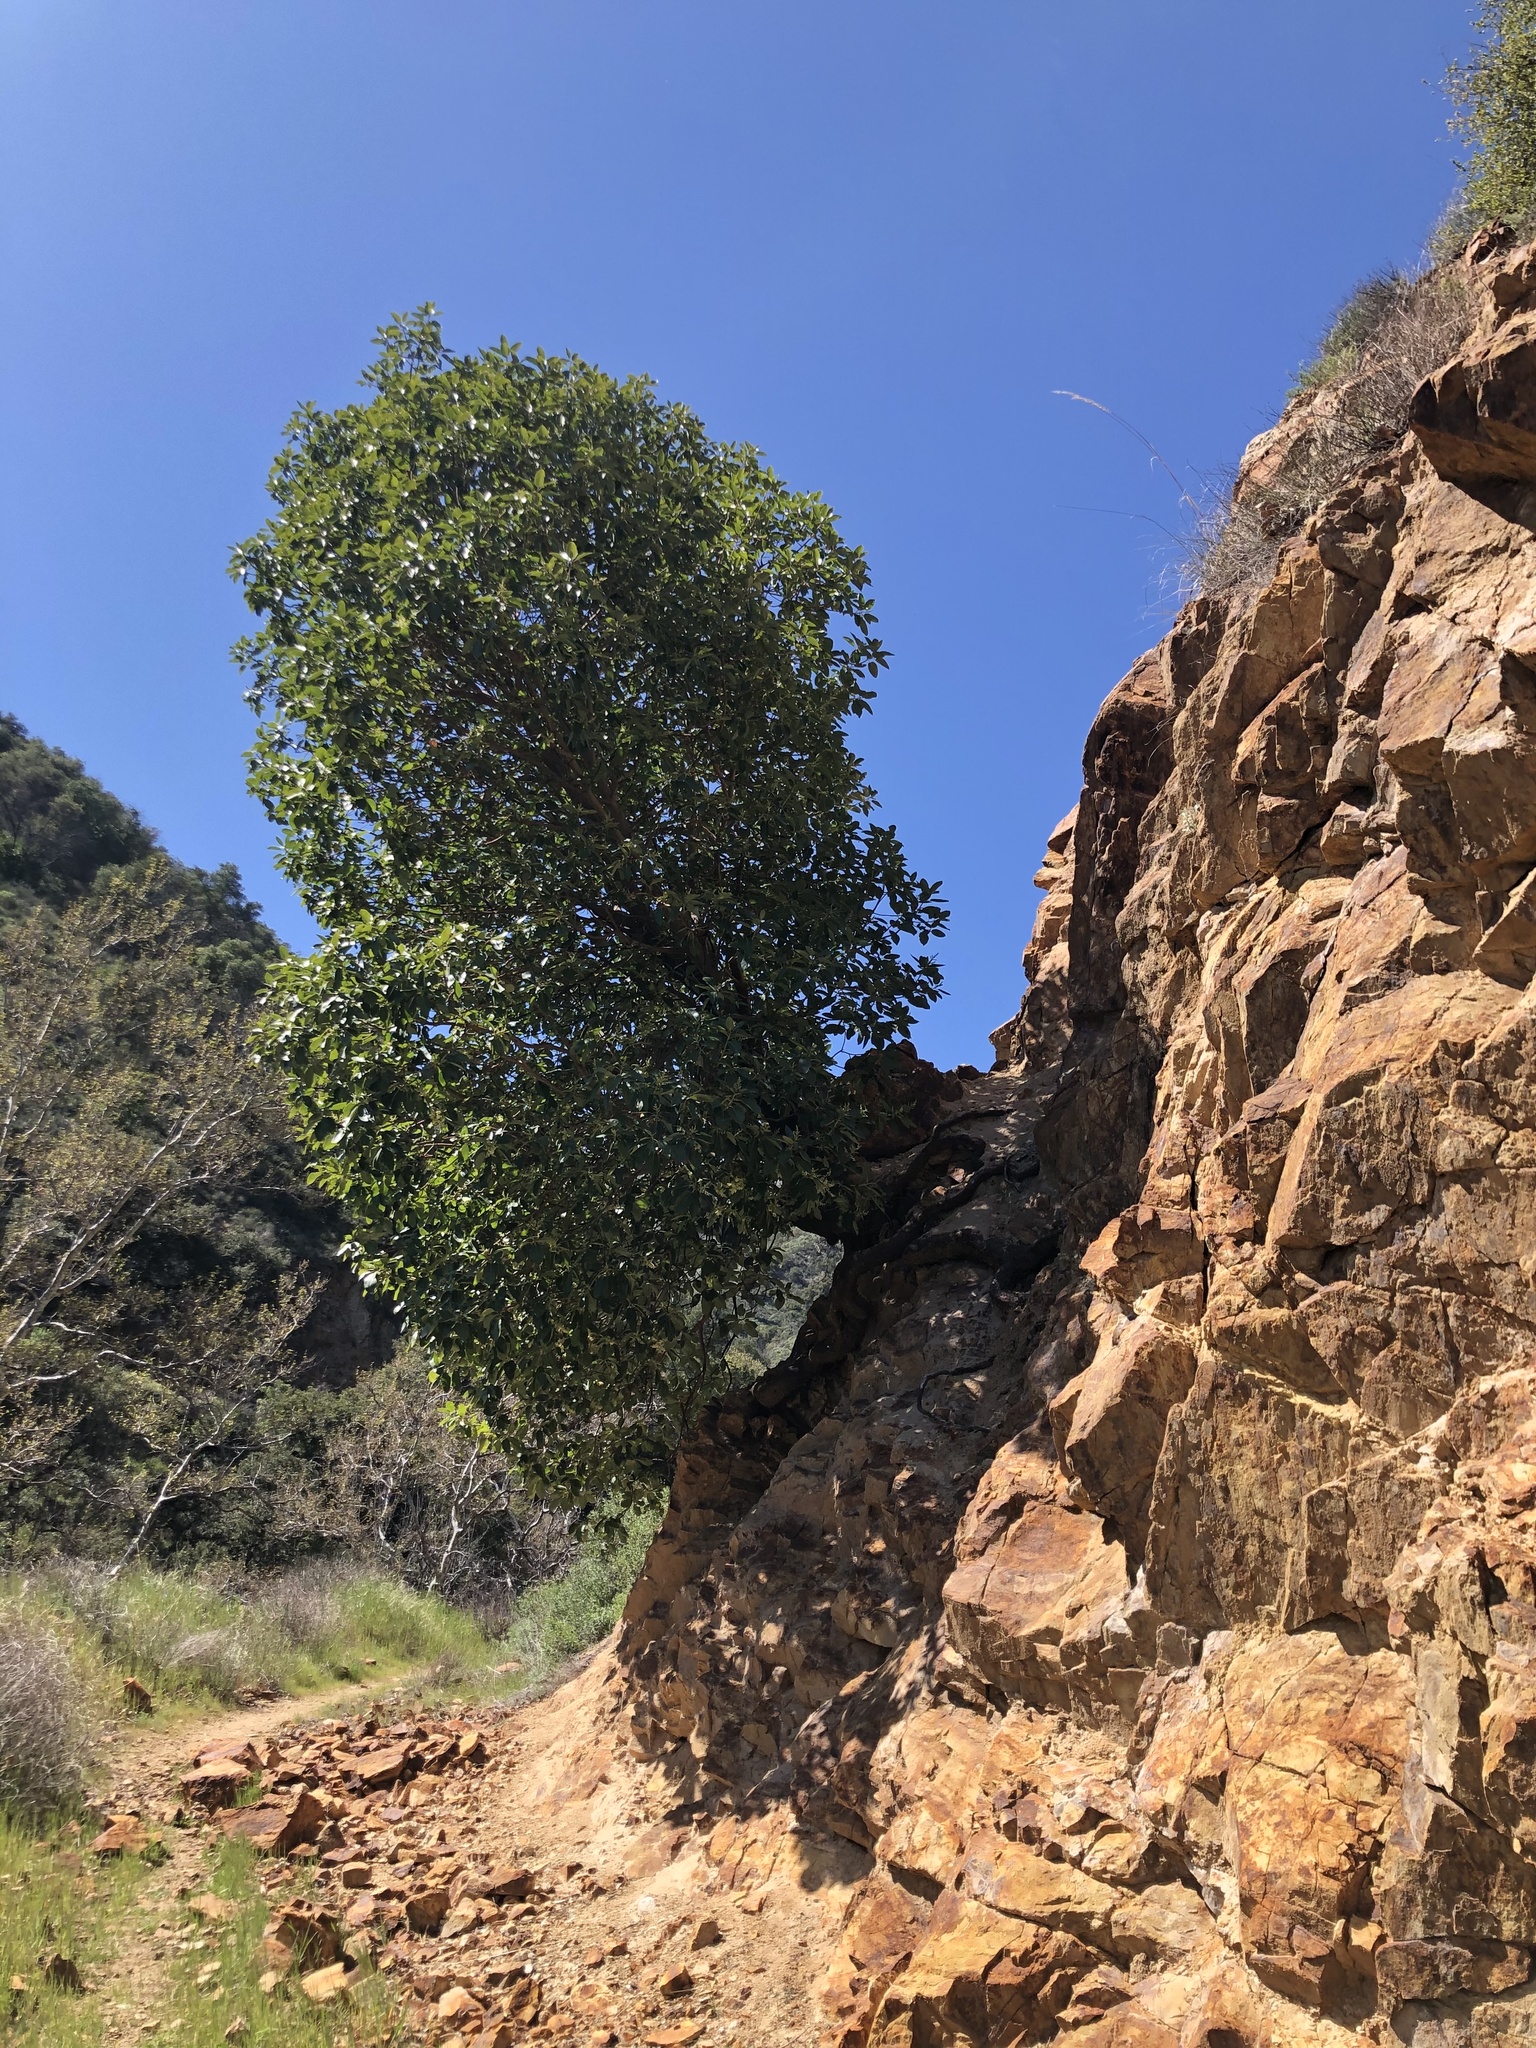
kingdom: Plantae
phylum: Tracheophyta
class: Magnoliopsida
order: Ericales
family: Ericaceae
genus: Arbutus
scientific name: Arbutus menziesii
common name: Pacific madrone
